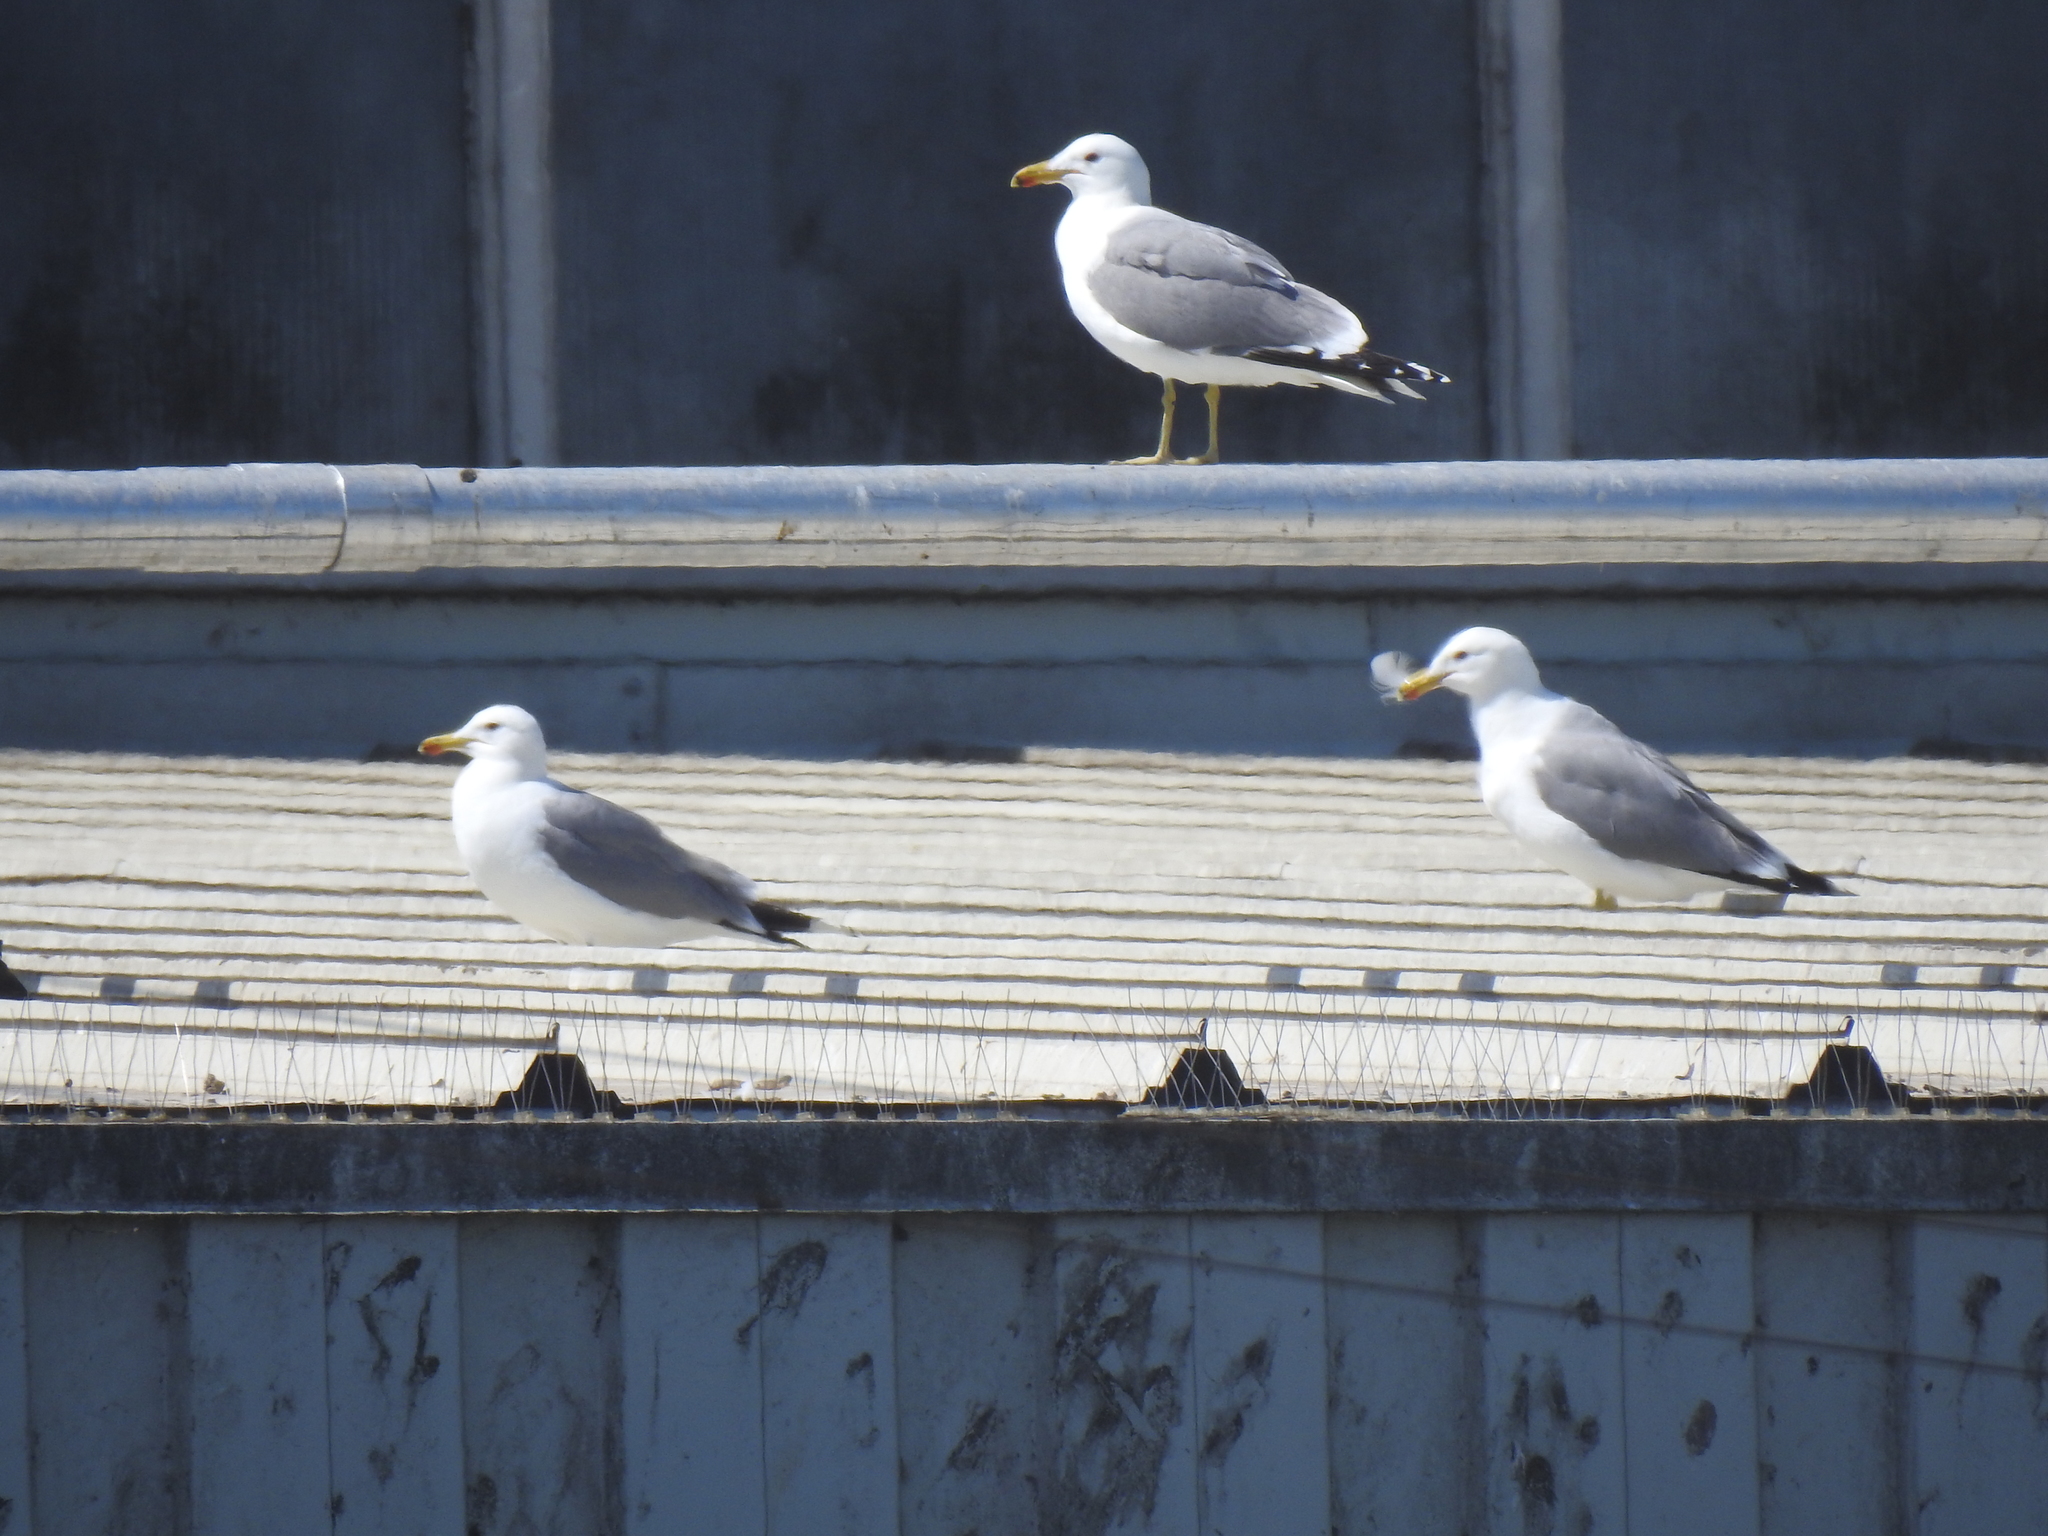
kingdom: Animalia
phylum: Chordata
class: Aves
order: Charadriiformes
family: Laridae
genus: Larus
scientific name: Larus californicus
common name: California gull
